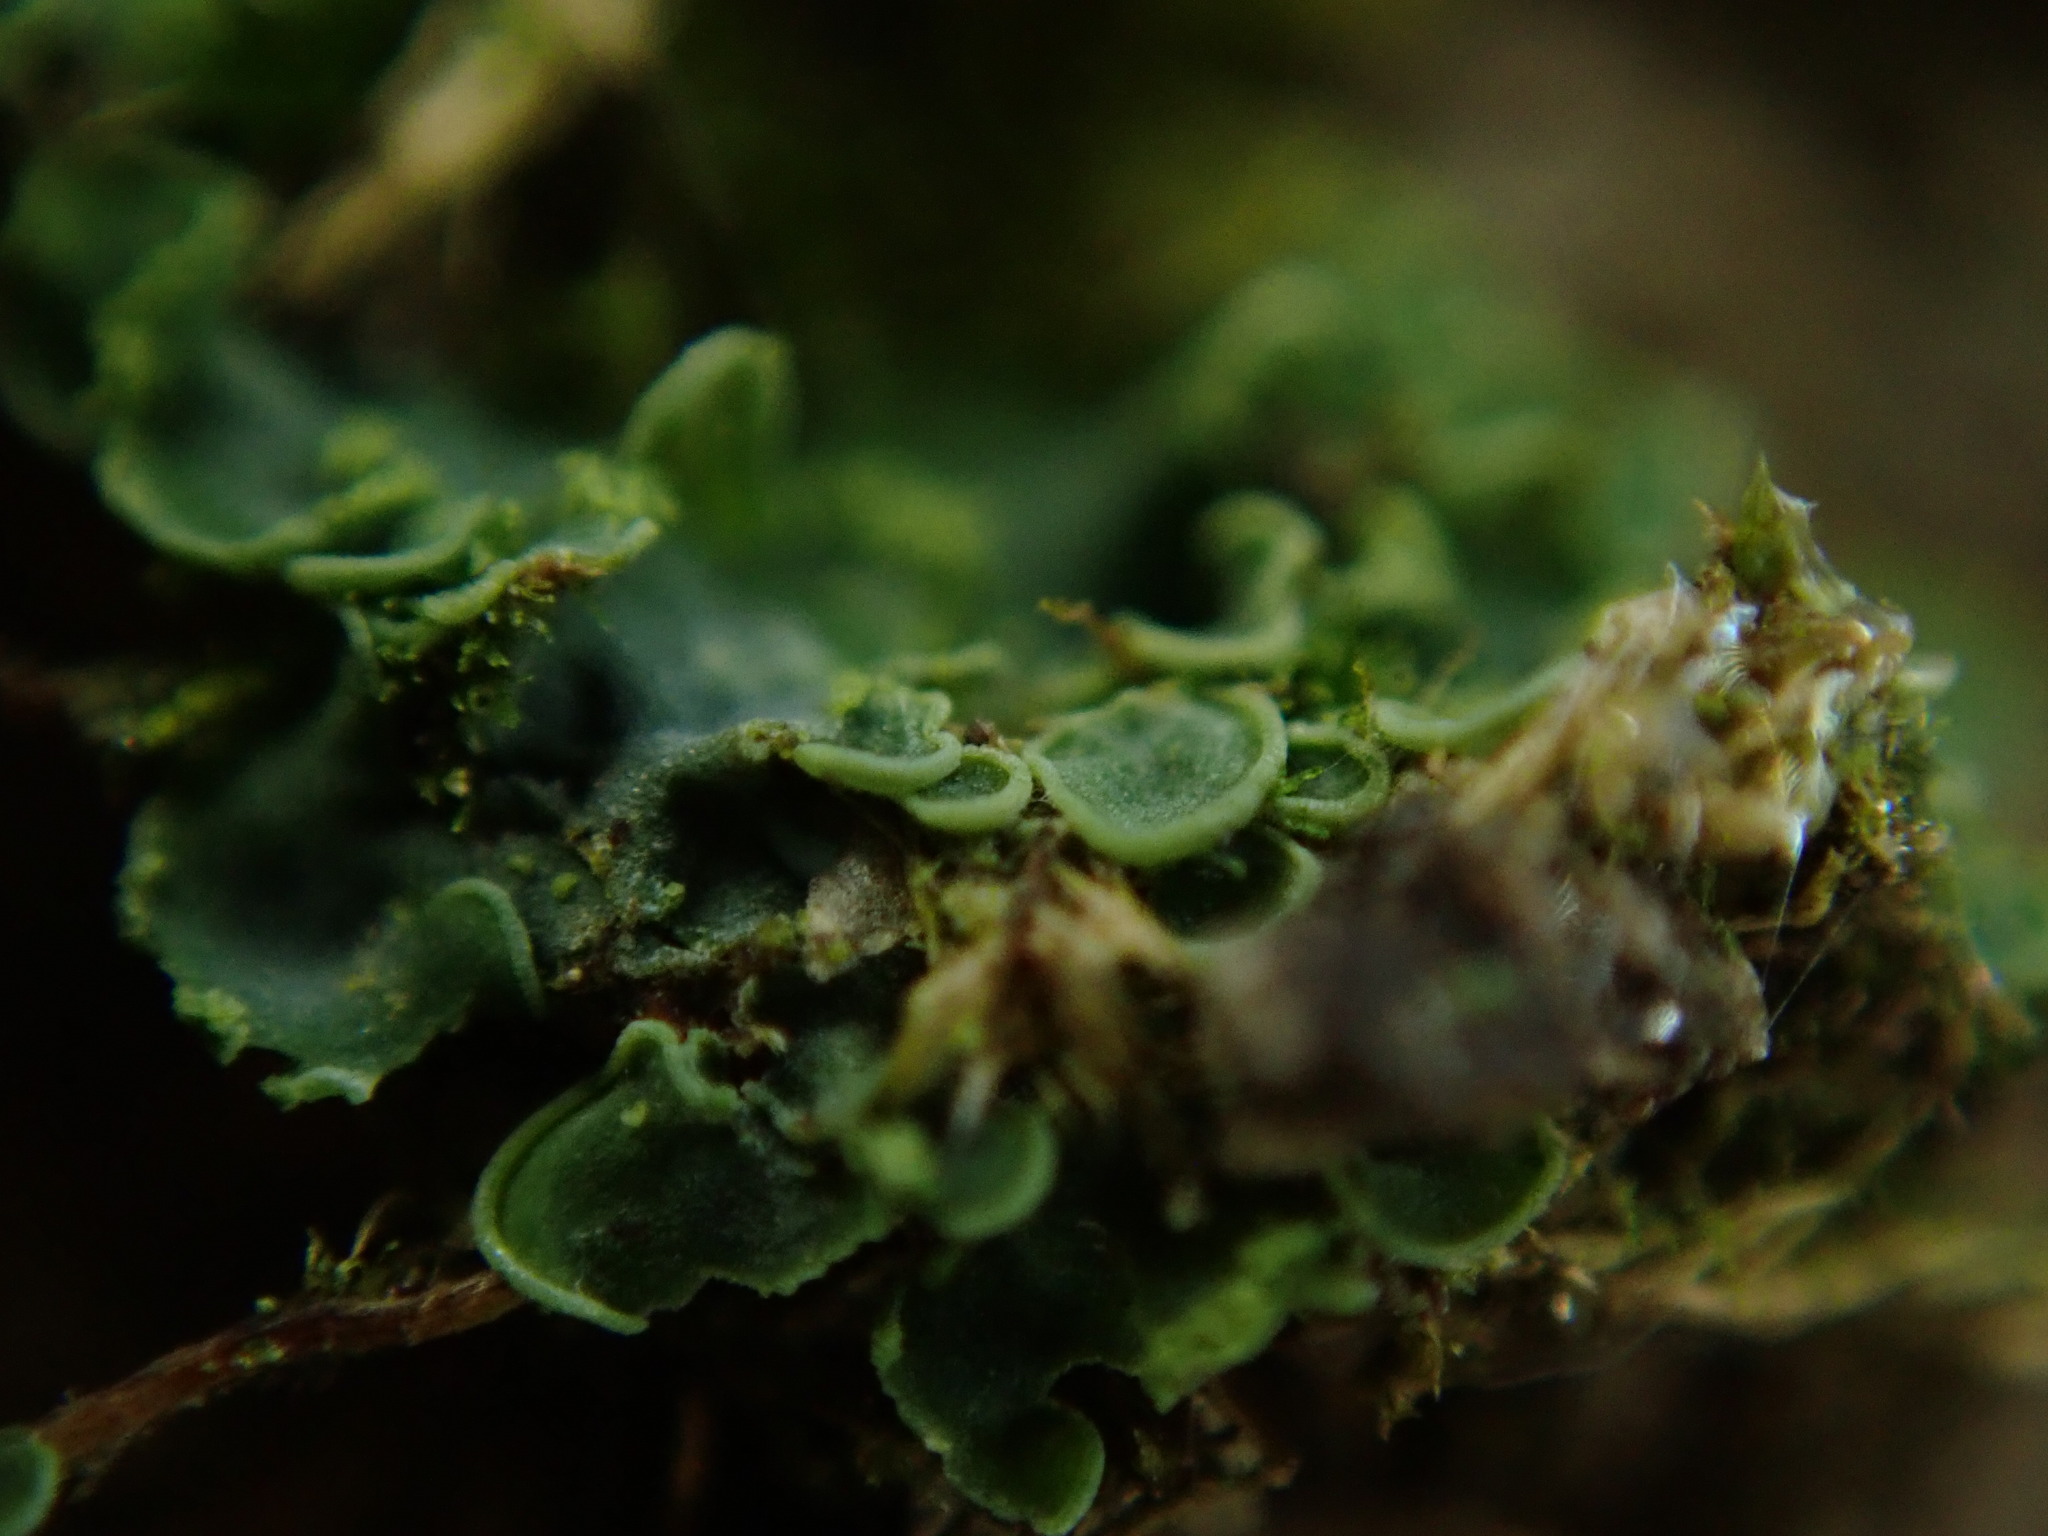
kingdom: Fungi
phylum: Ascomycota
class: Eurotiomycetes
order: Verrucariales
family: Verrucariaceae
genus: Normandina
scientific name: Normandina pulchella
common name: Elf ears lichen
